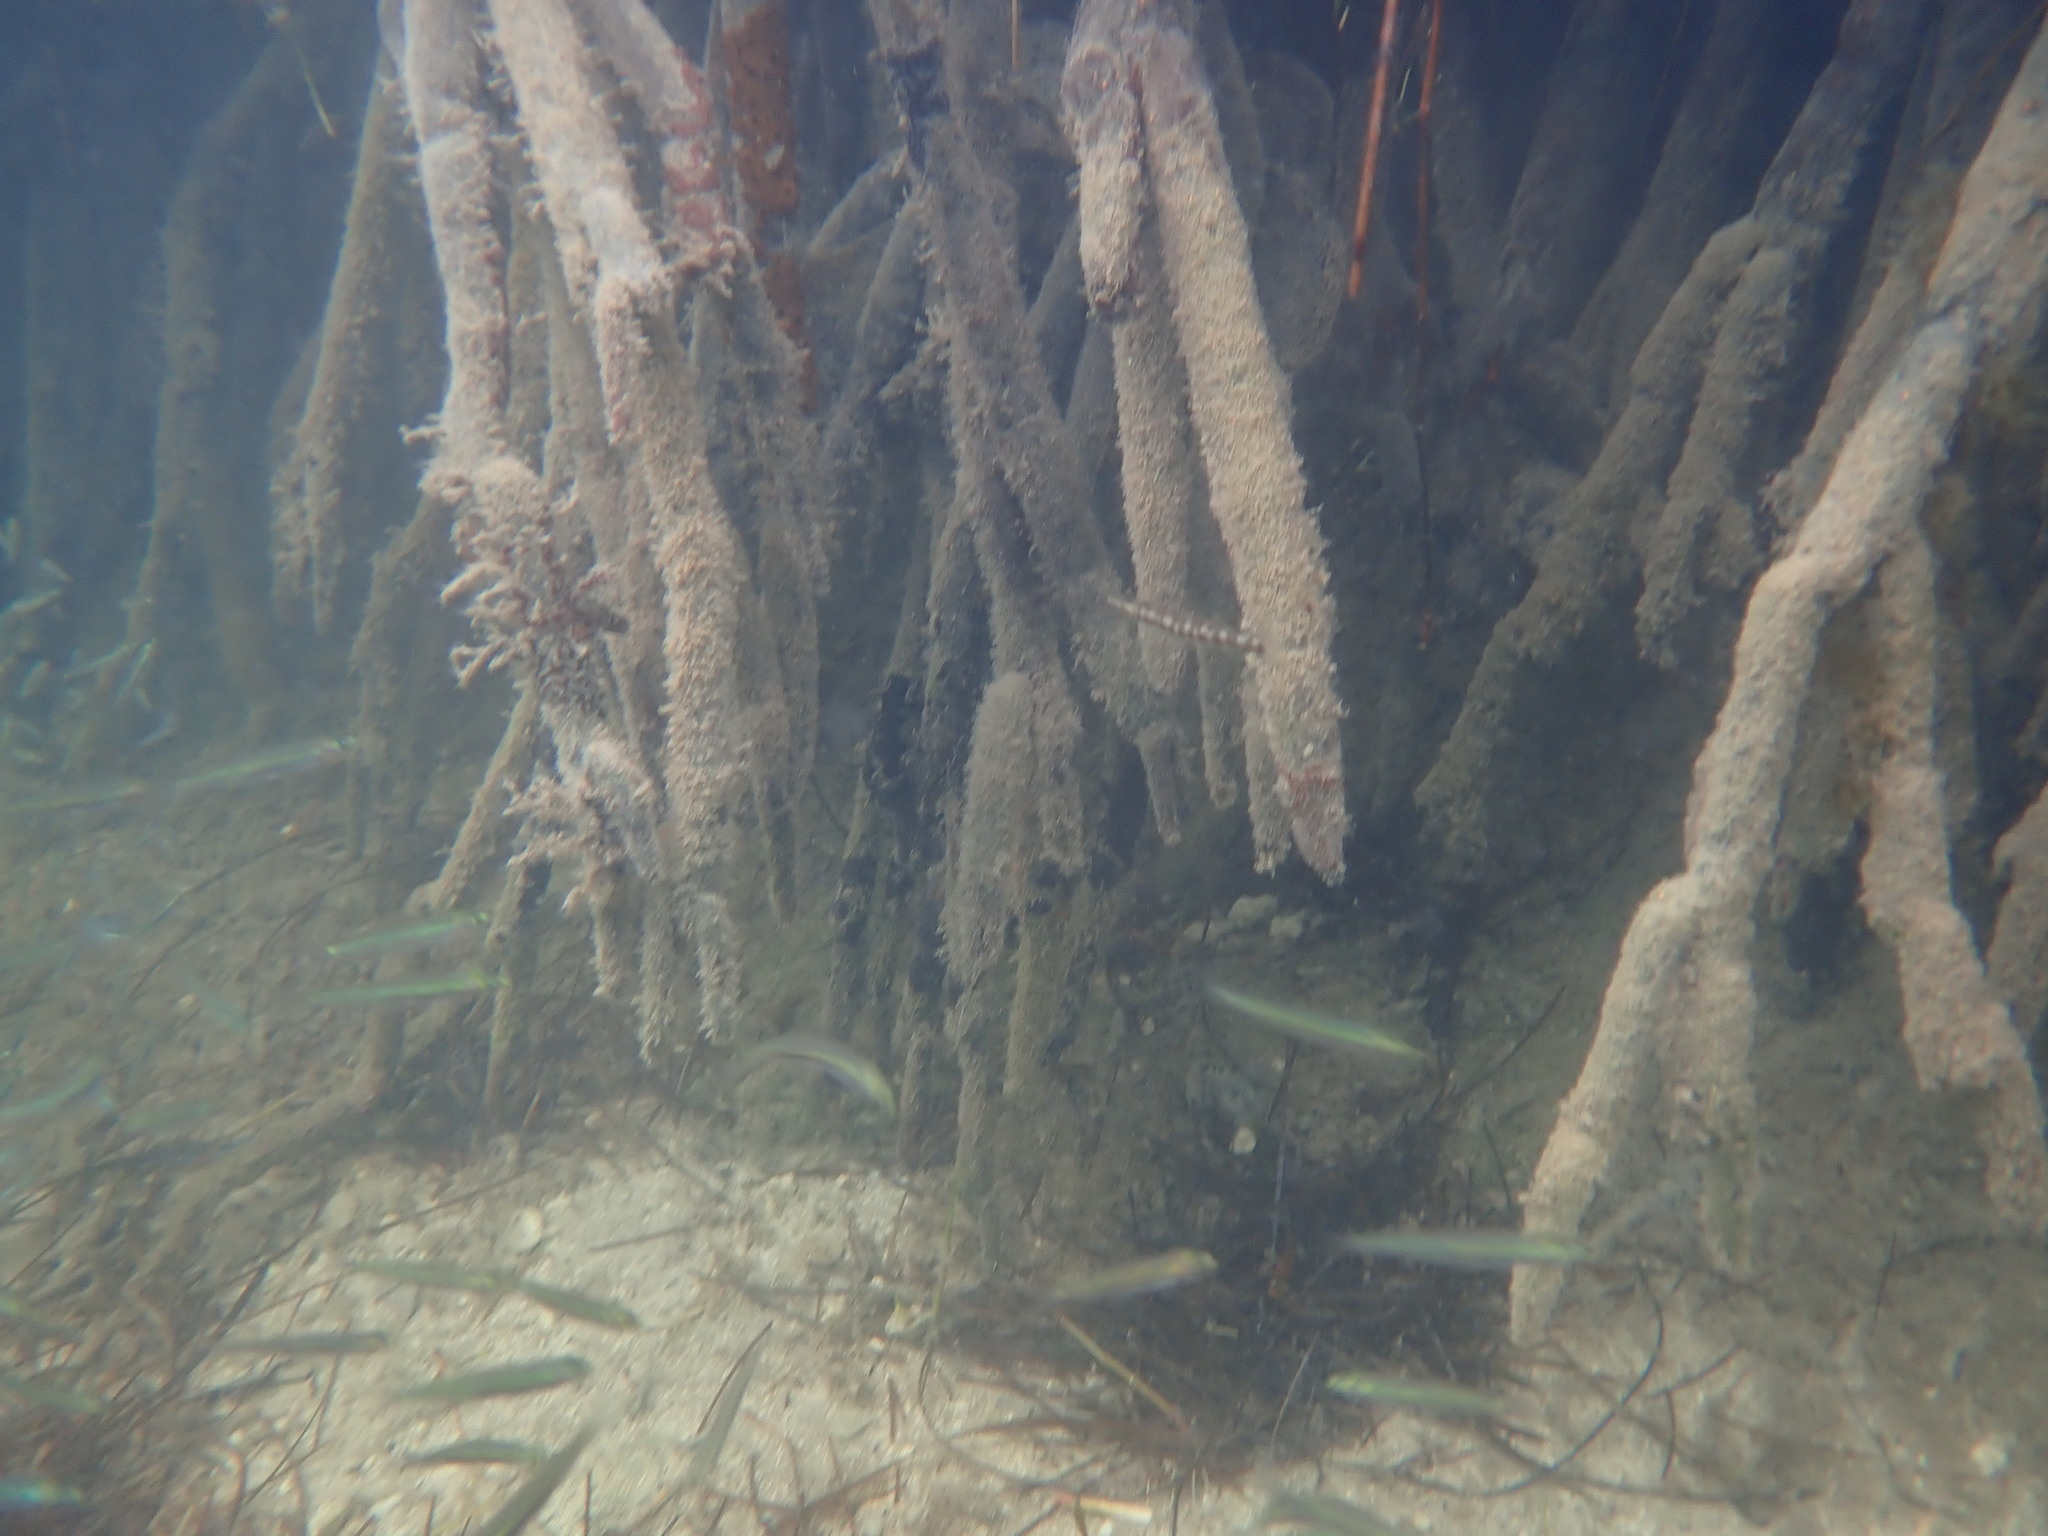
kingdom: Animalia
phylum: Chordata
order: Perciformes
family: Sphyraenidae
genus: Sphyraena
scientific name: Sphyraena barracuda
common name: Great barracuda
